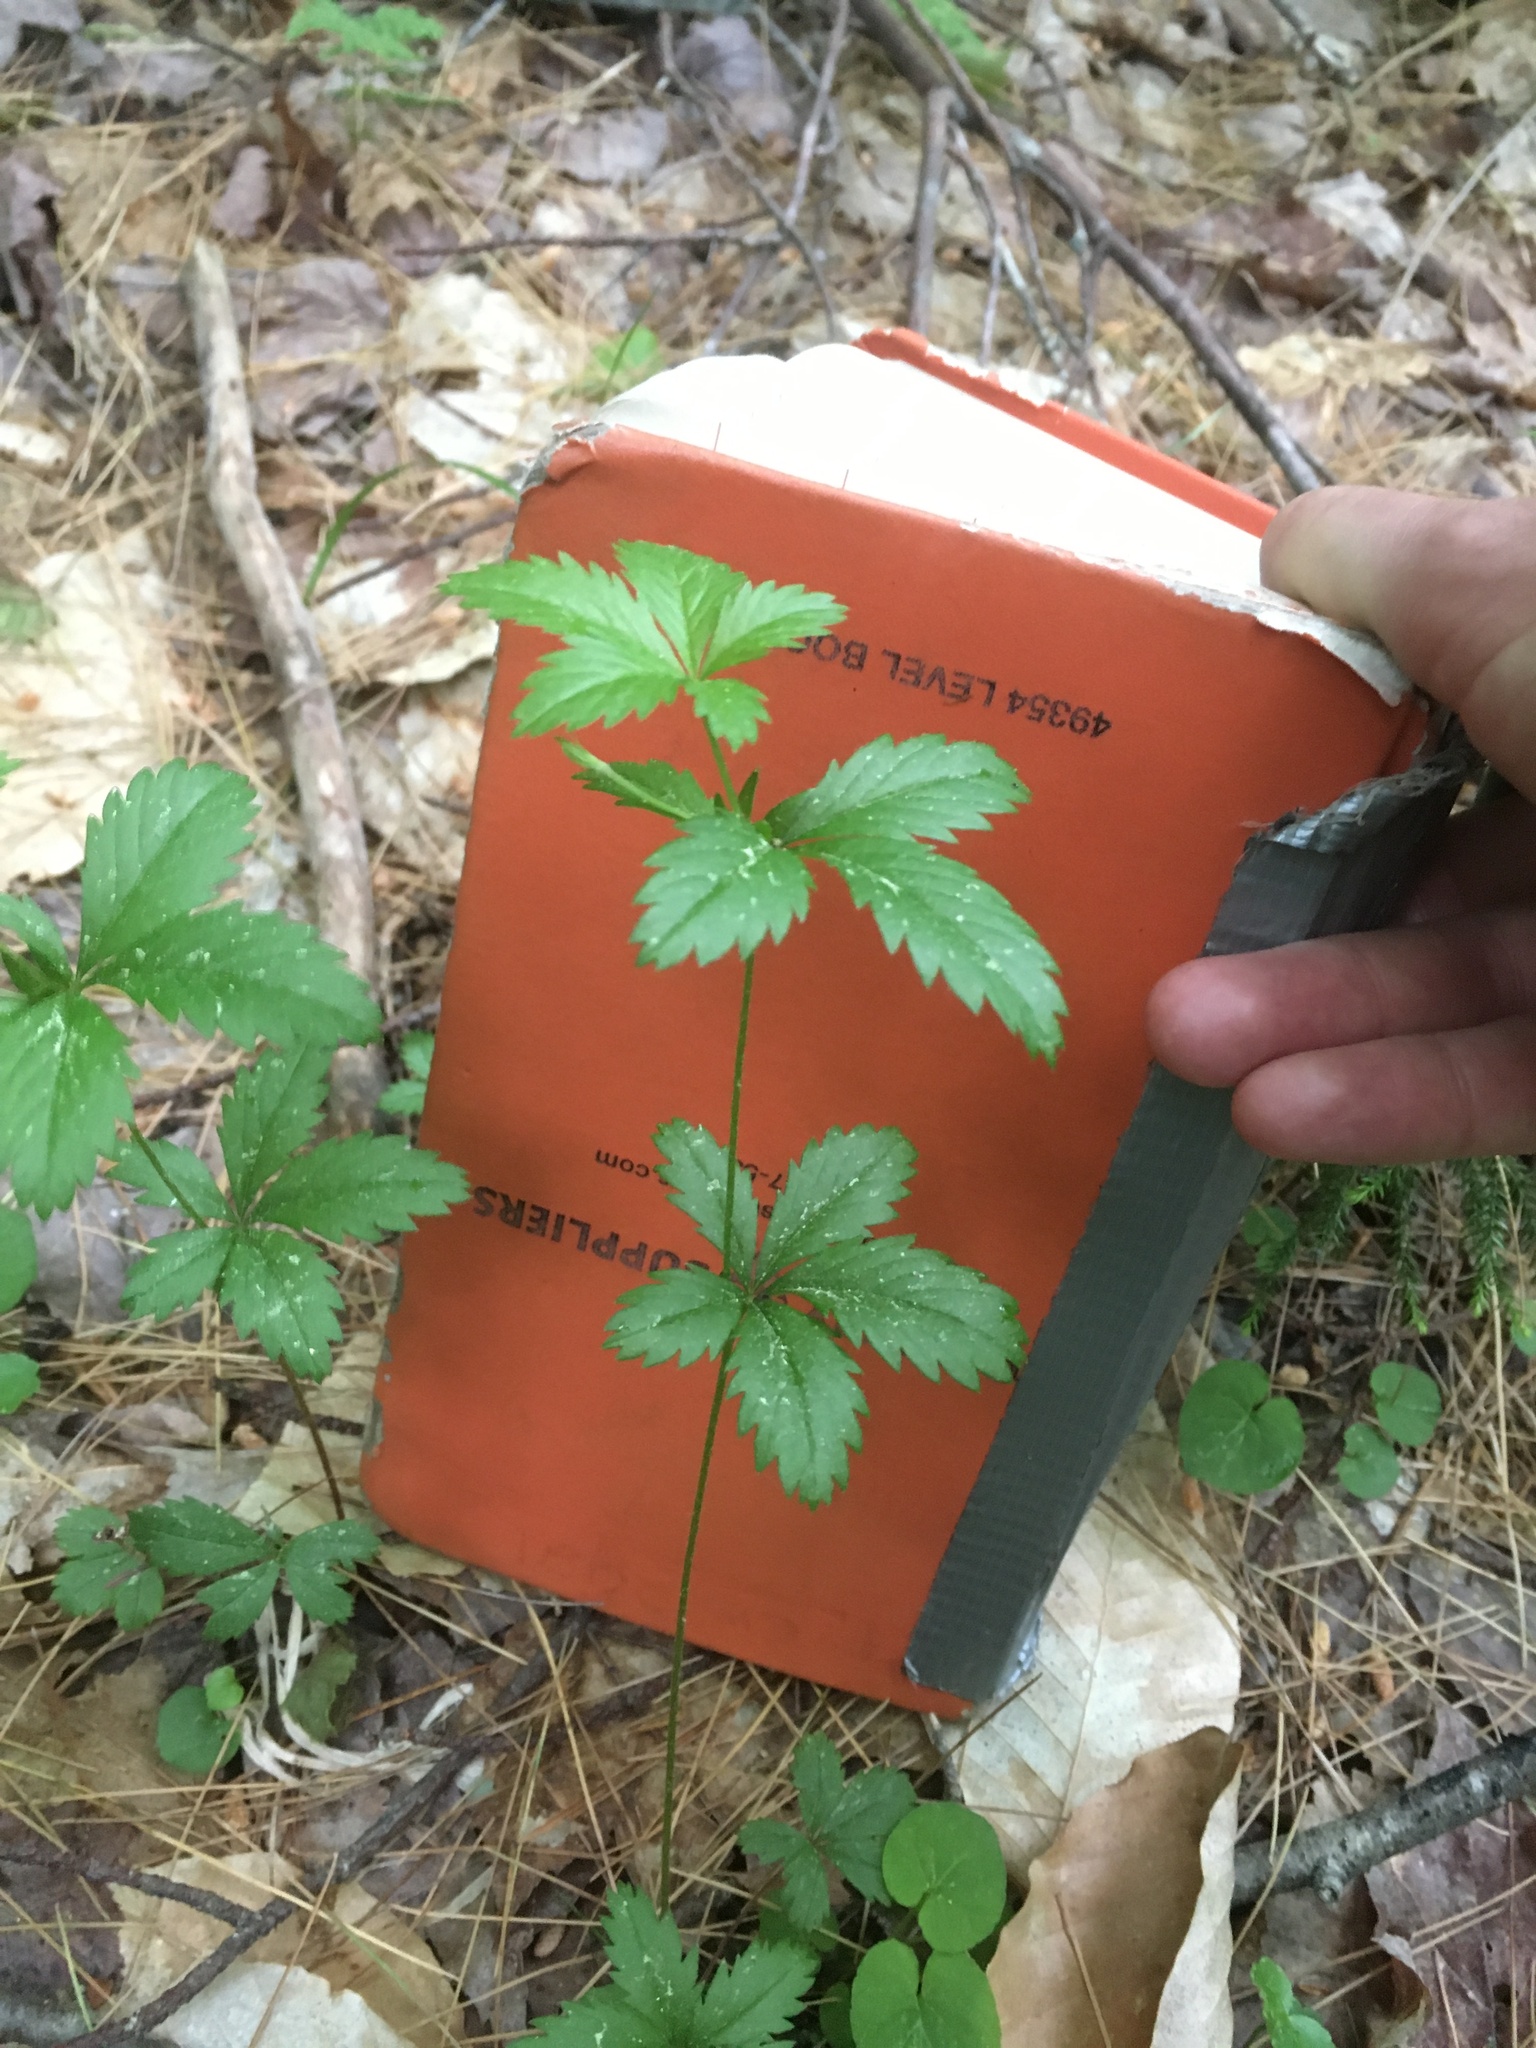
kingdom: Plantae
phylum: Tracheophyta
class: Magnoliopsida
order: Rosales
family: Rosaceae
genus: Potentilla
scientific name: Potentilla simplex
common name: Old field cinquefoil
